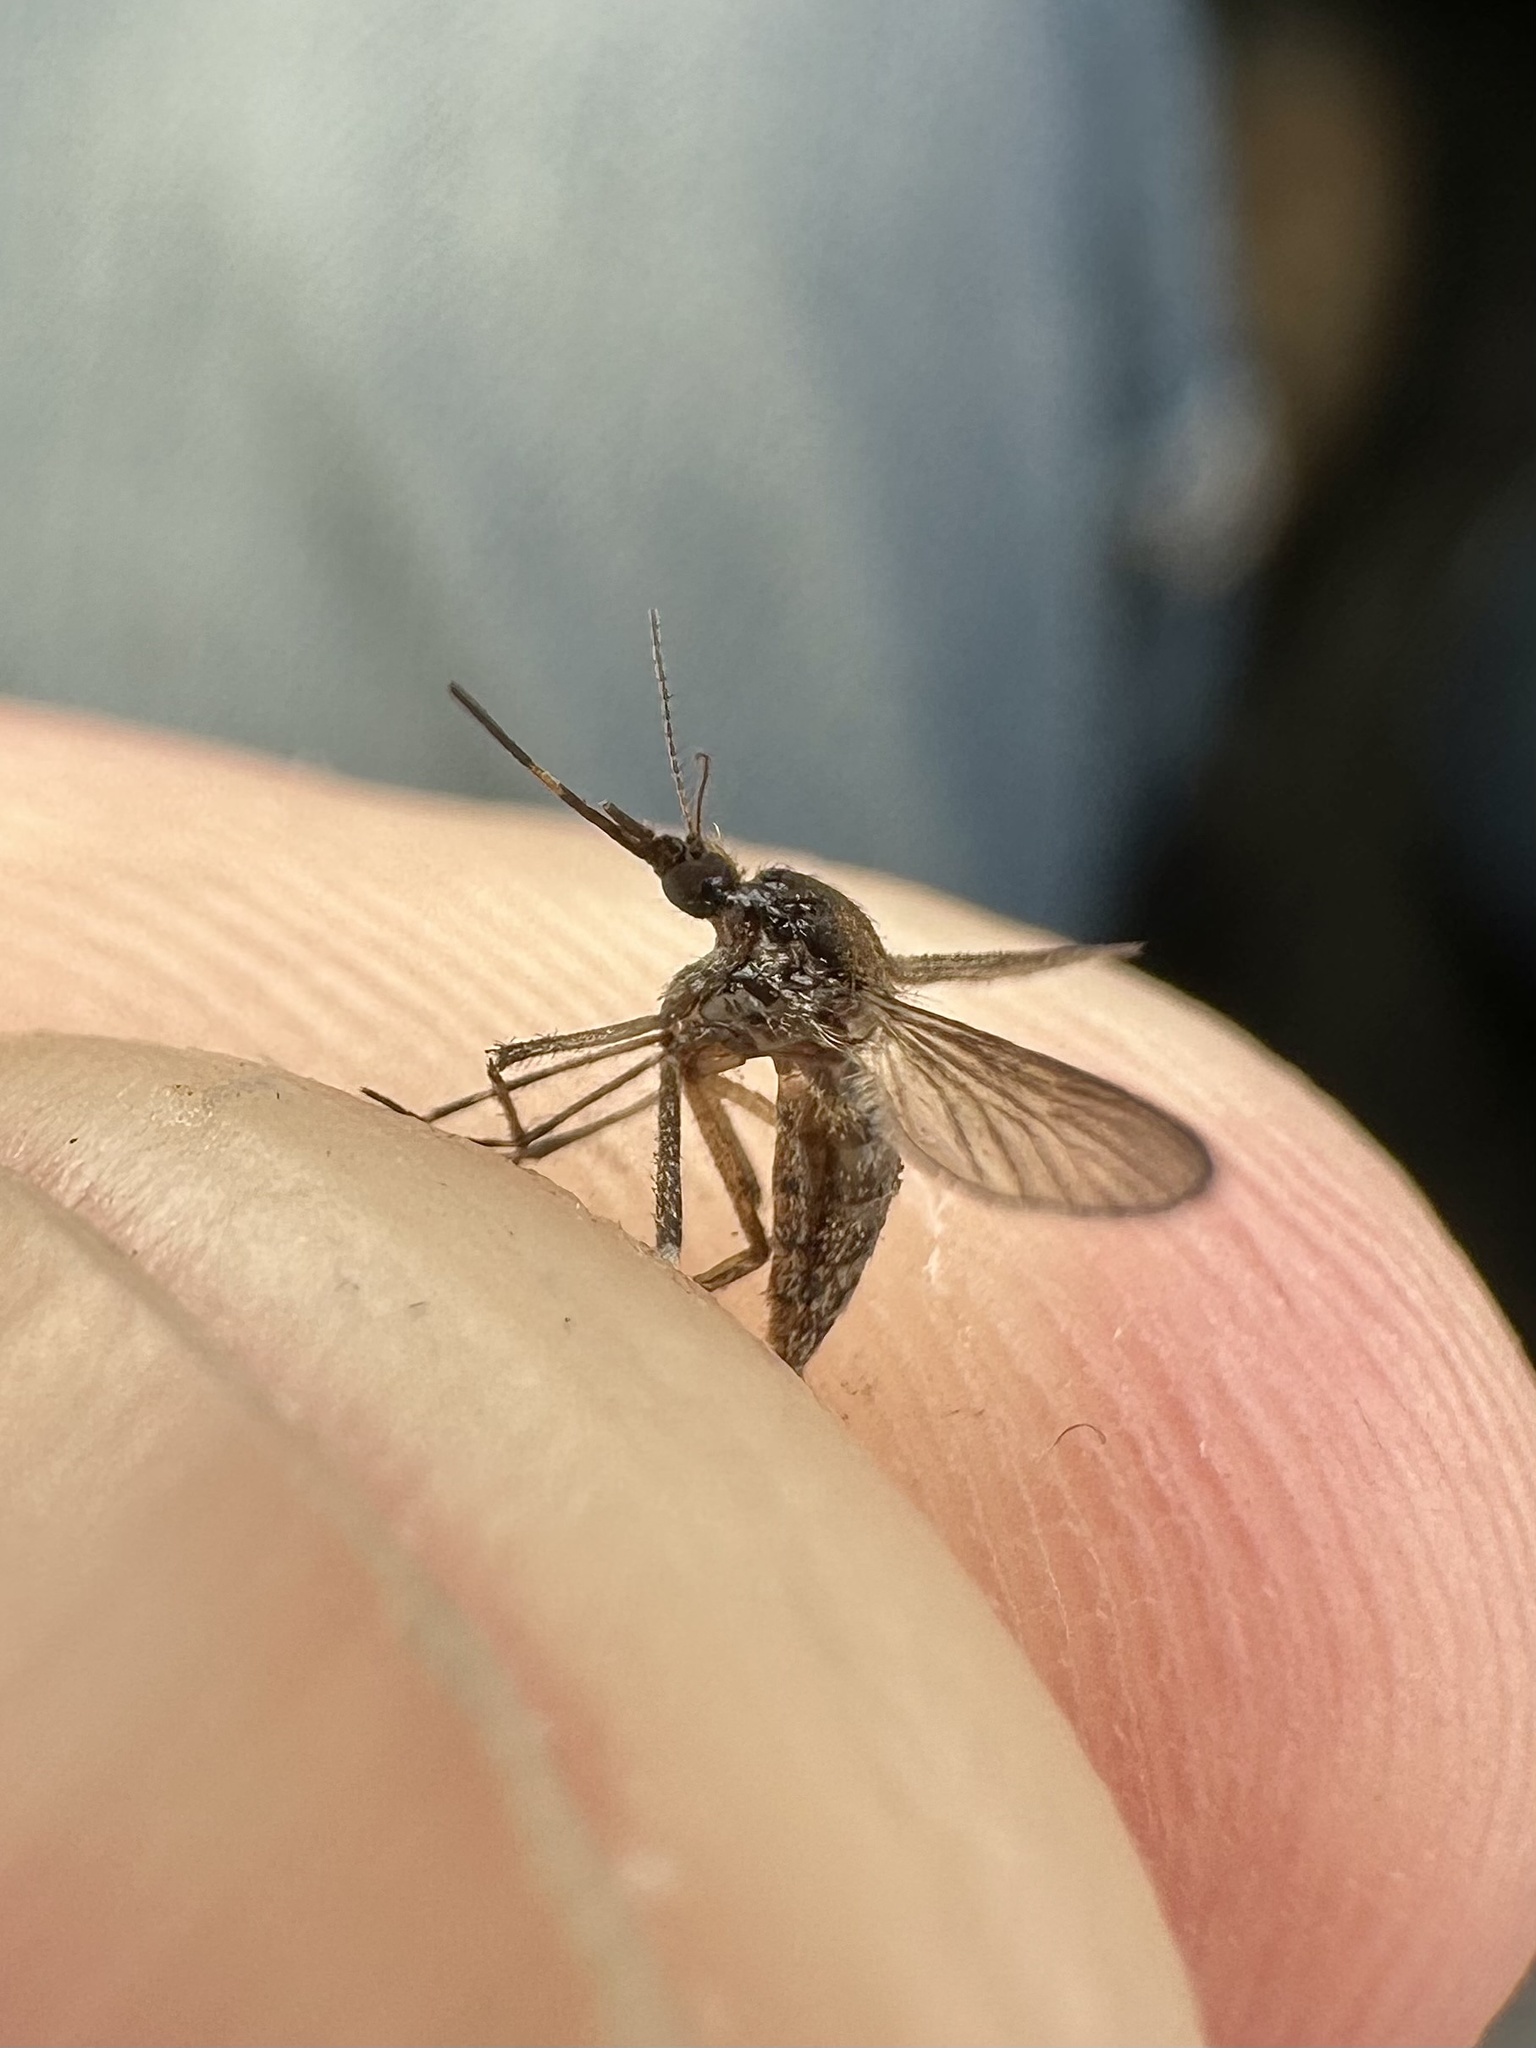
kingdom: Animalia
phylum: Arthropoda
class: Insecta
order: Diptera
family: Culicidae
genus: Aedes
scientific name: Aedes sollicitans
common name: Saltmarsh mosquito
